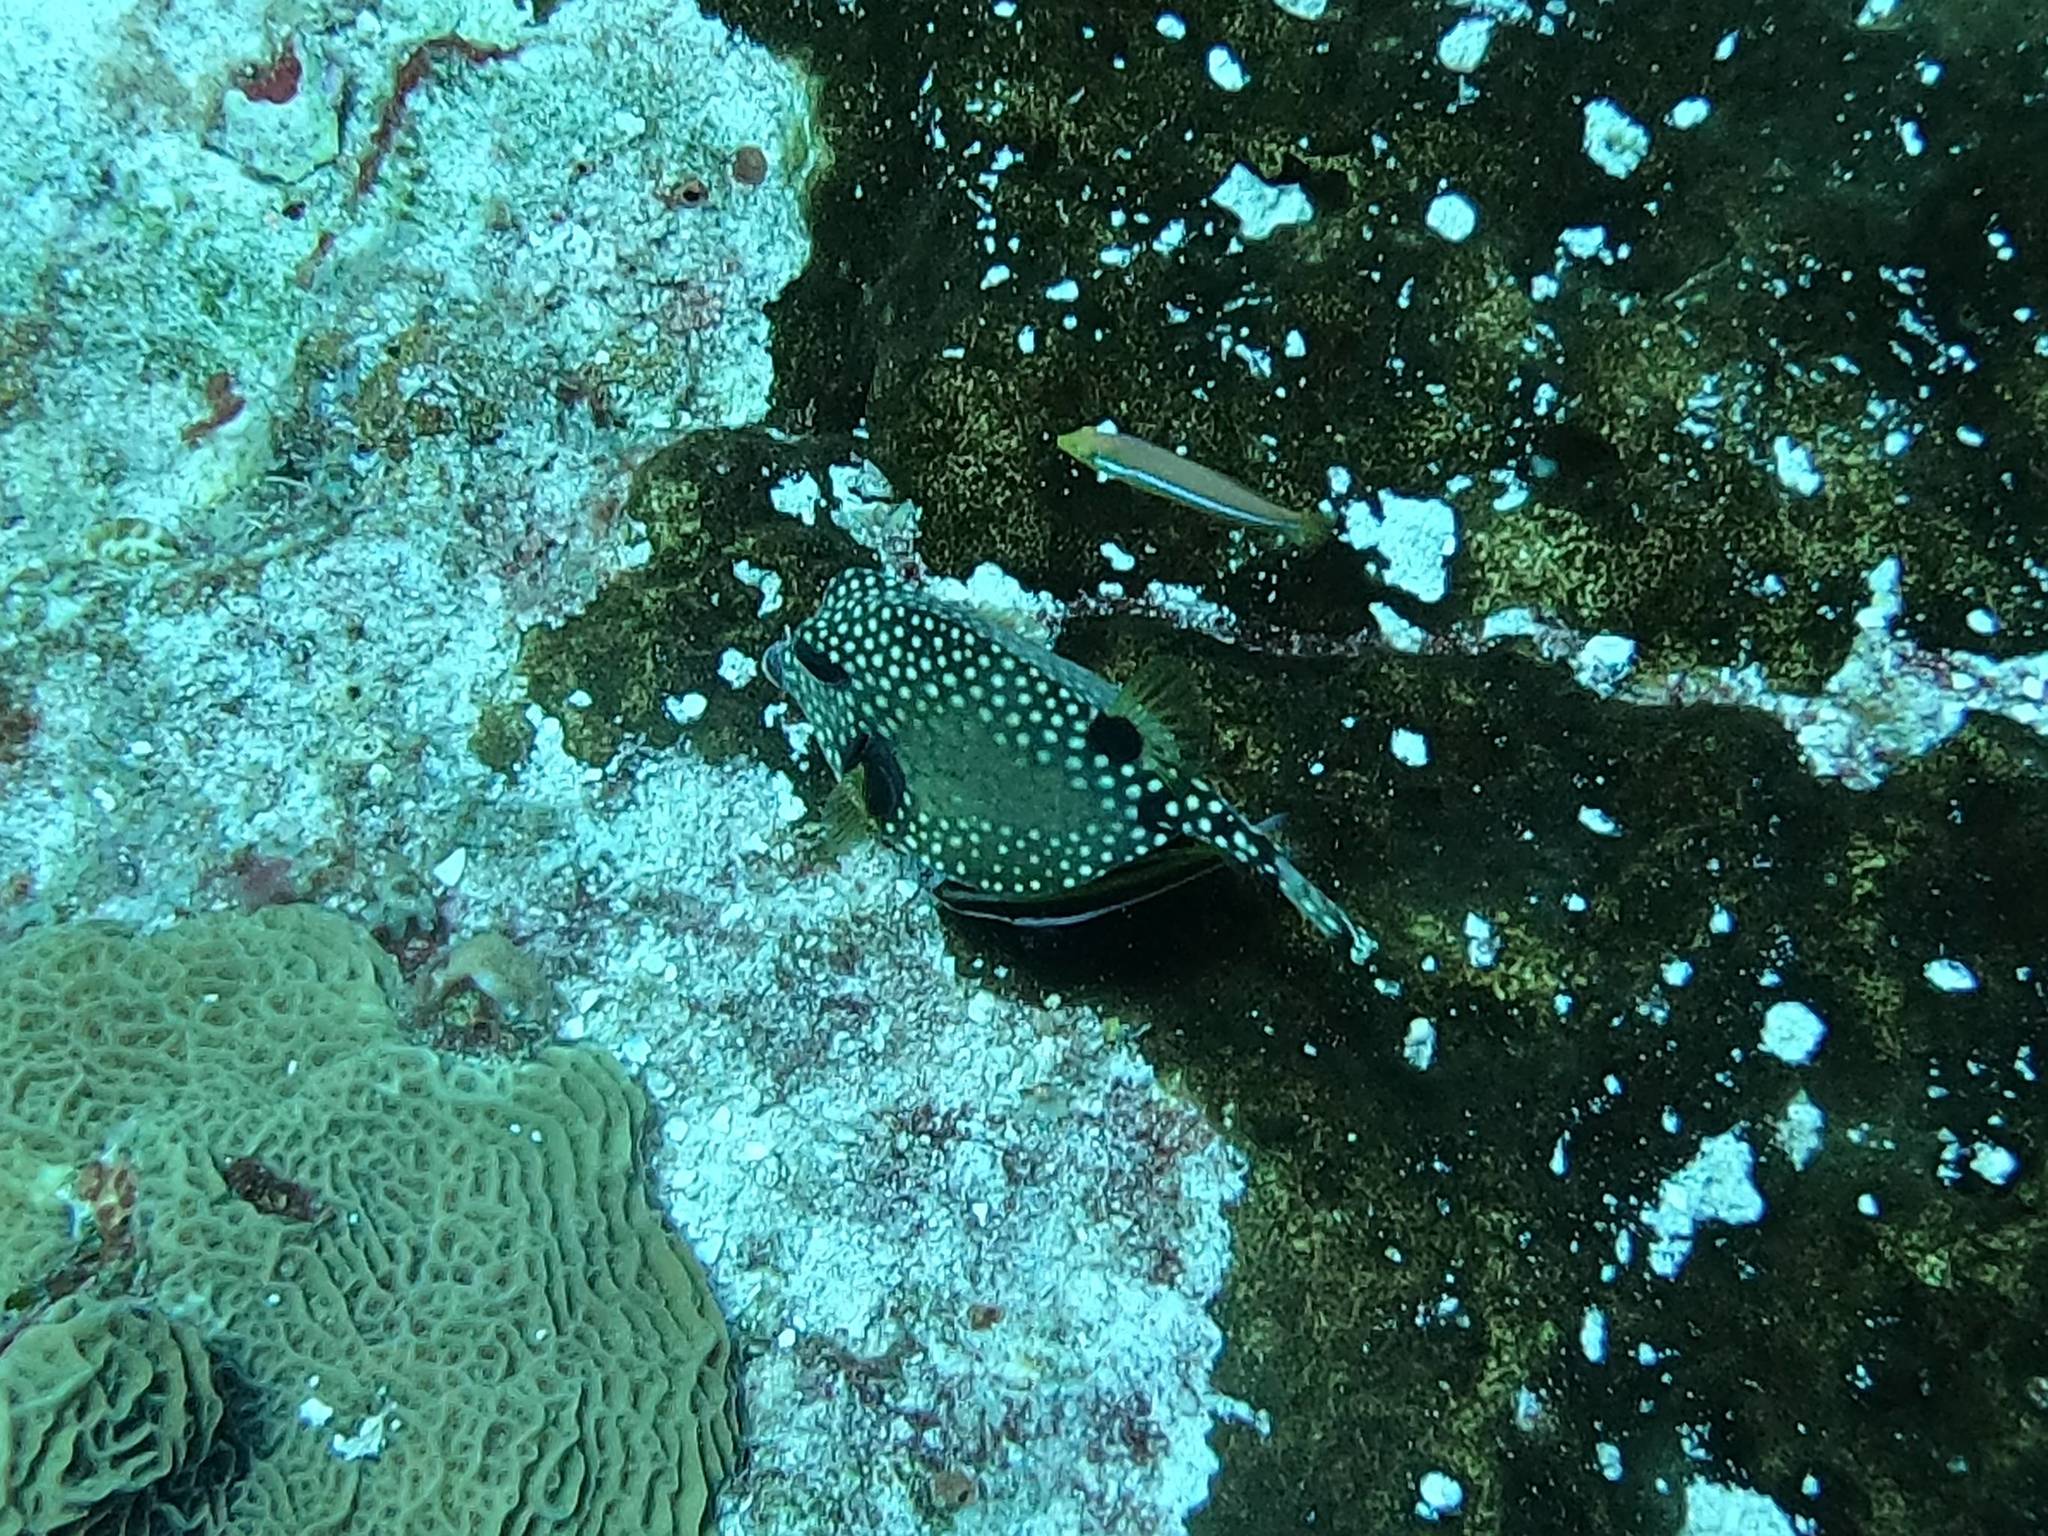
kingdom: Animalia
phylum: Chordata
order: Tetraodontiformes
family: Ostraciidae
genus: Lactophrys
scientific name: Lactophrys triqueter
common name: Smooth trunkfish
